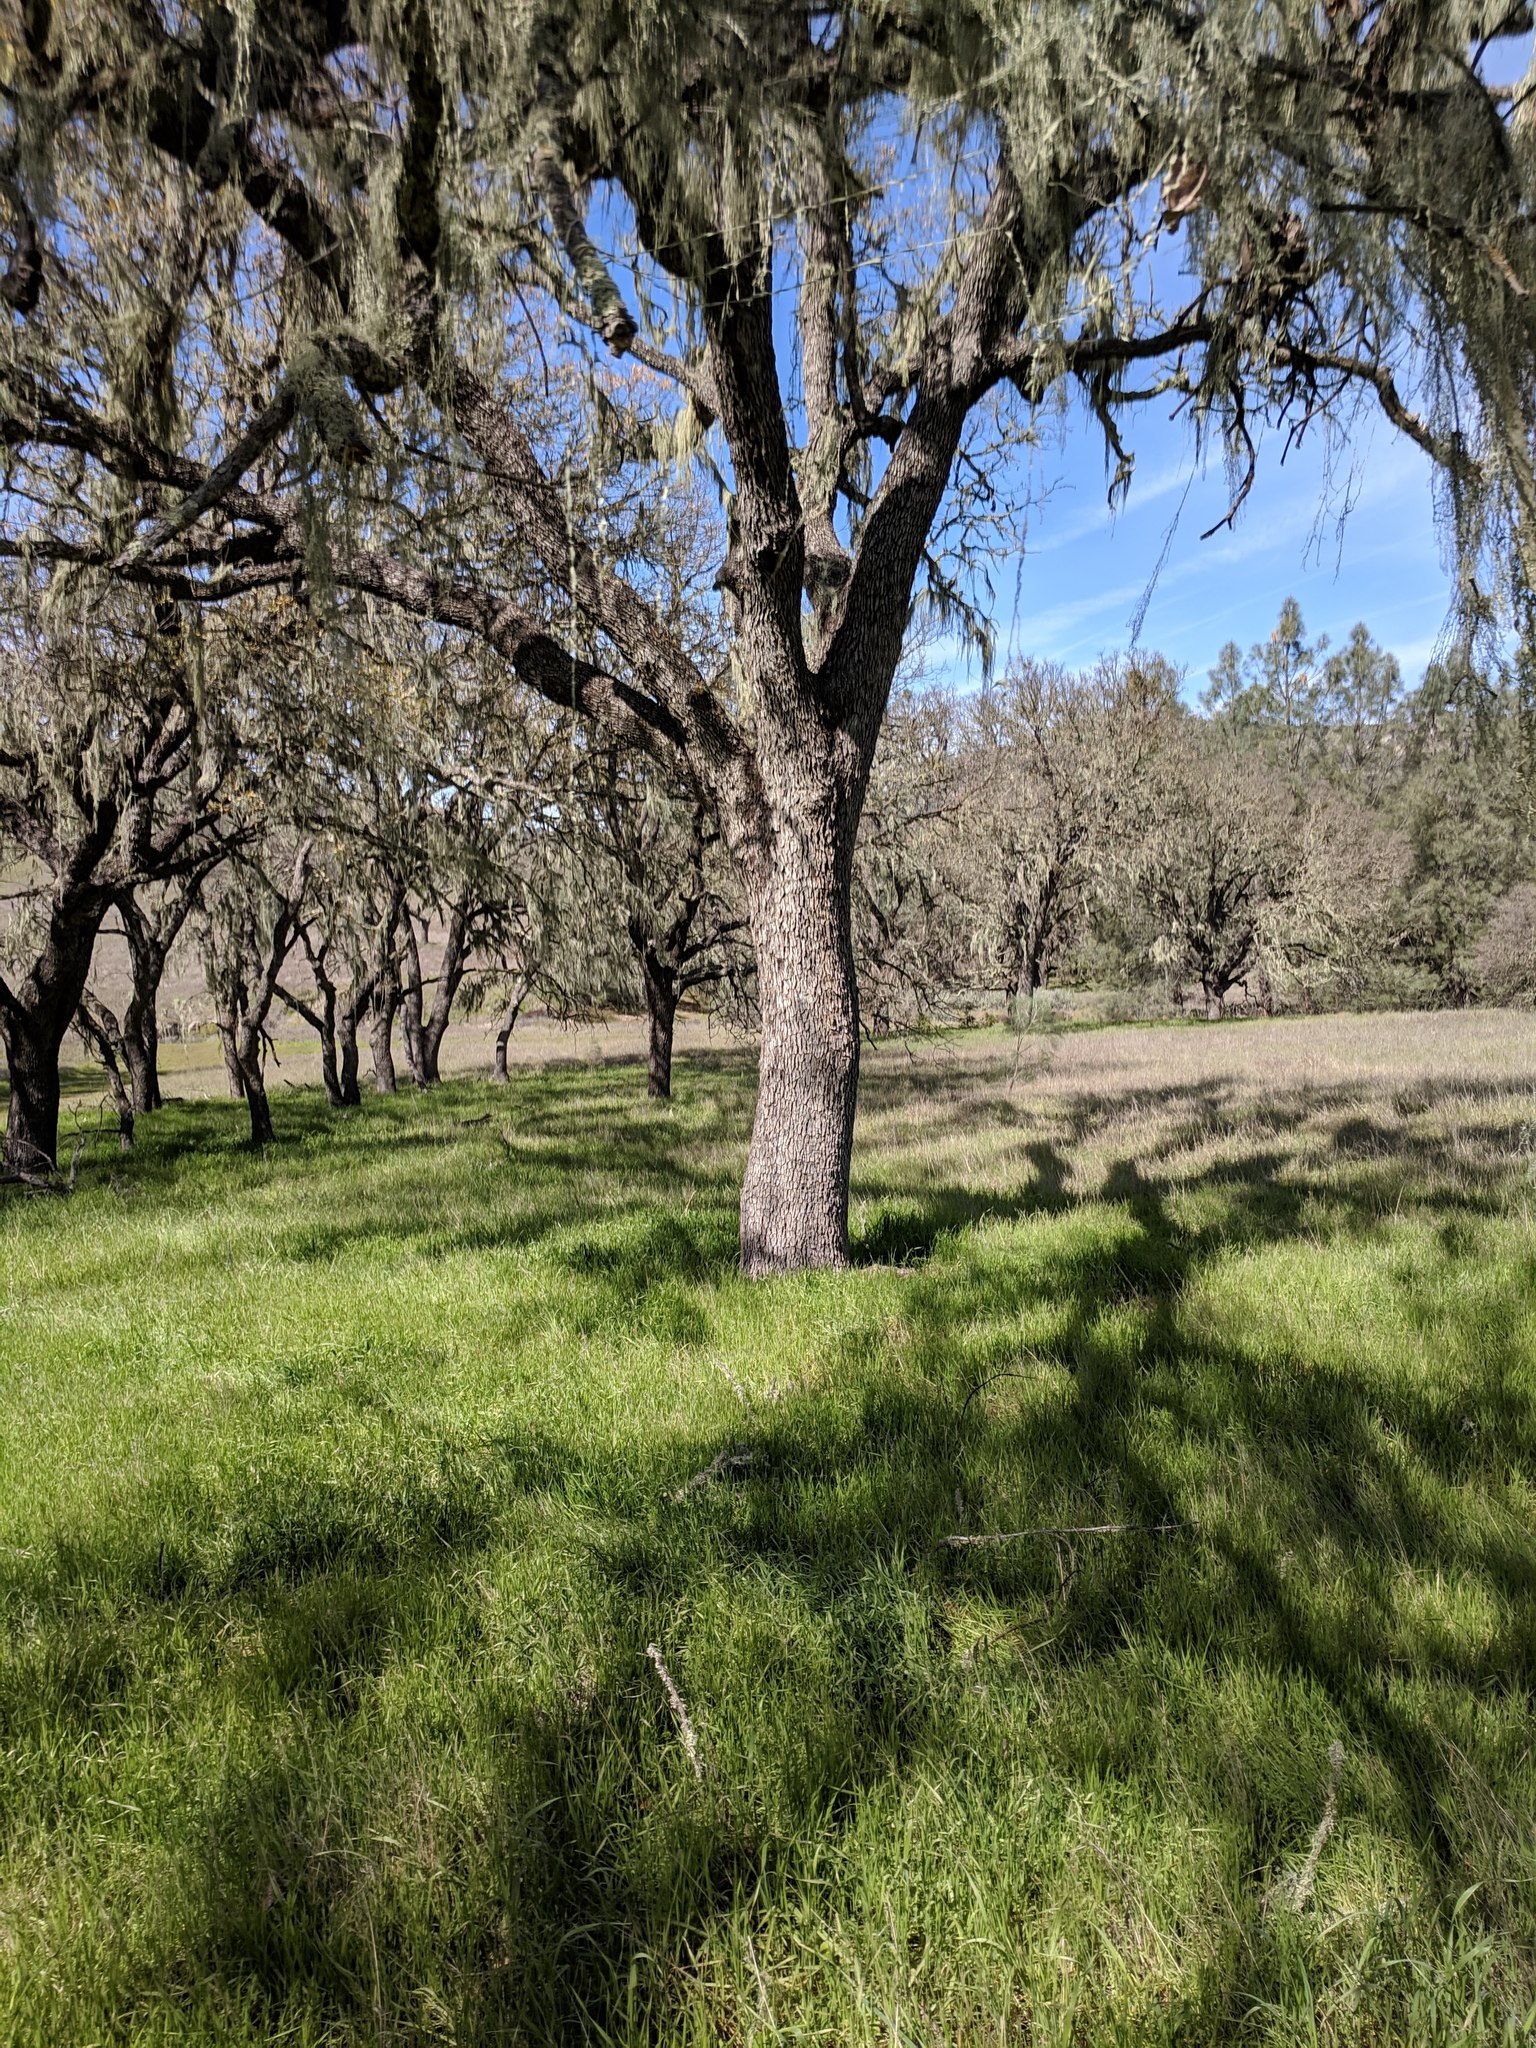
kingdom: Plantae
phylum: Tracheophyta
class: Magnoliopsida
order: Fagales
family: Fagaceae
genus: Quercus
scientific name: Quercus douglasii
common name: Blue oak
